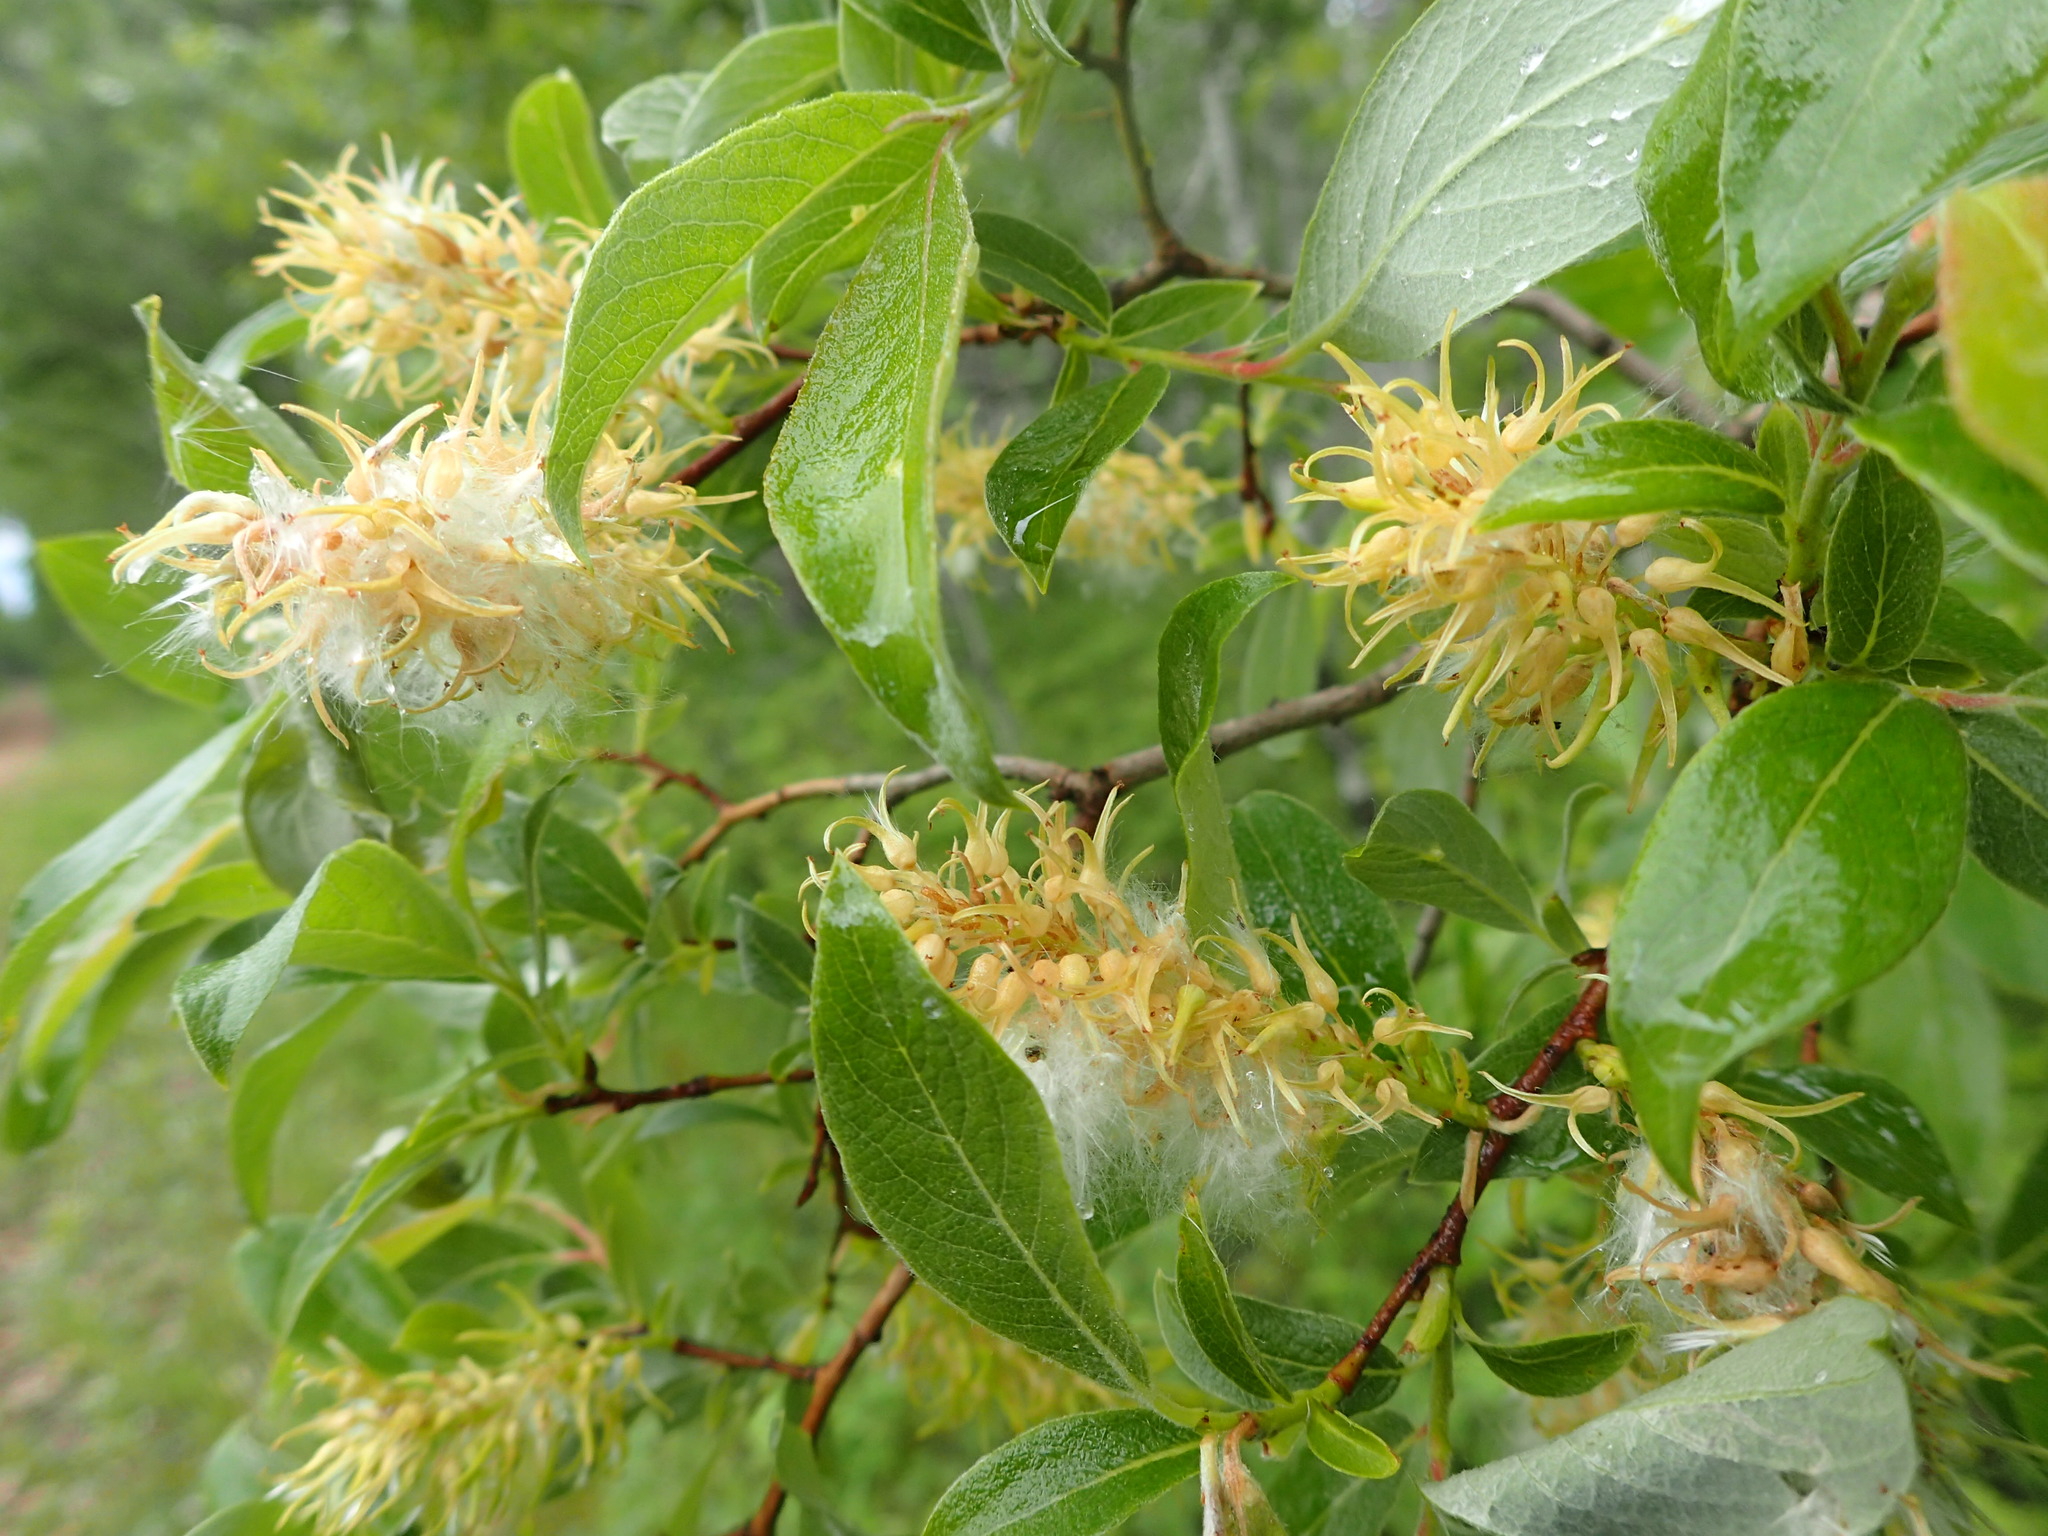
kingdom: Plantae
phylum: Tracheophyta
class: Magnoliopsida
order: Malpighiales
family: Salicaceae
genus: Salix
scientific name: Salix bebbiana
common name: Bebb's willow
